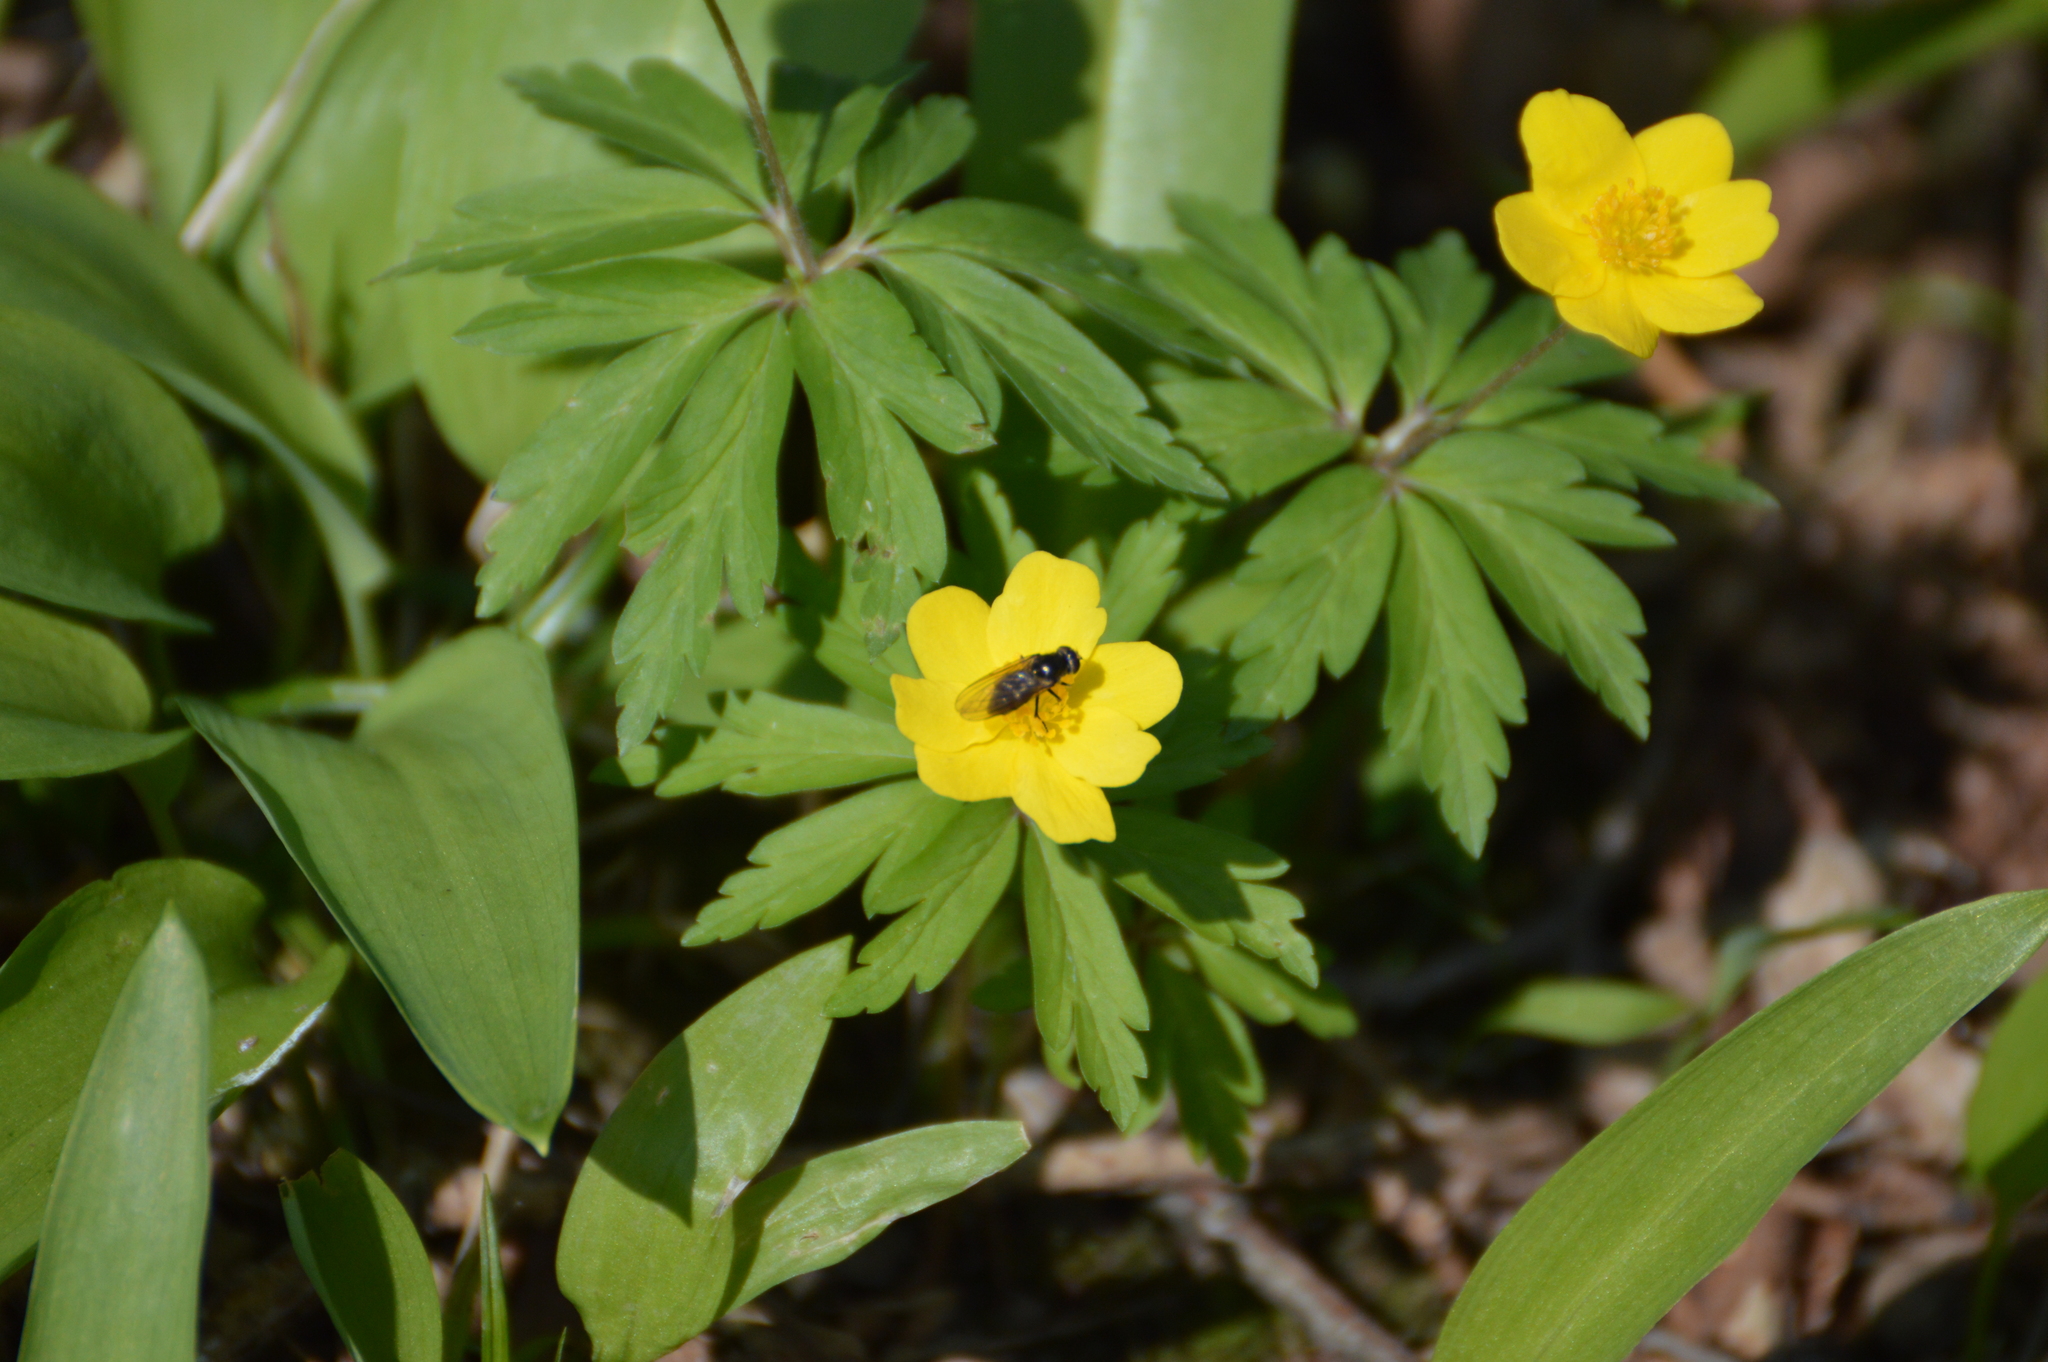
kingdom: Plantae
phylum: Tracheophyta
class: Magnoliopsida
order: Ranunculales
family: Ranunculaceae
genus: Anemone
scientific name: Anemone ranunculoides
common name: Yellow anemone
